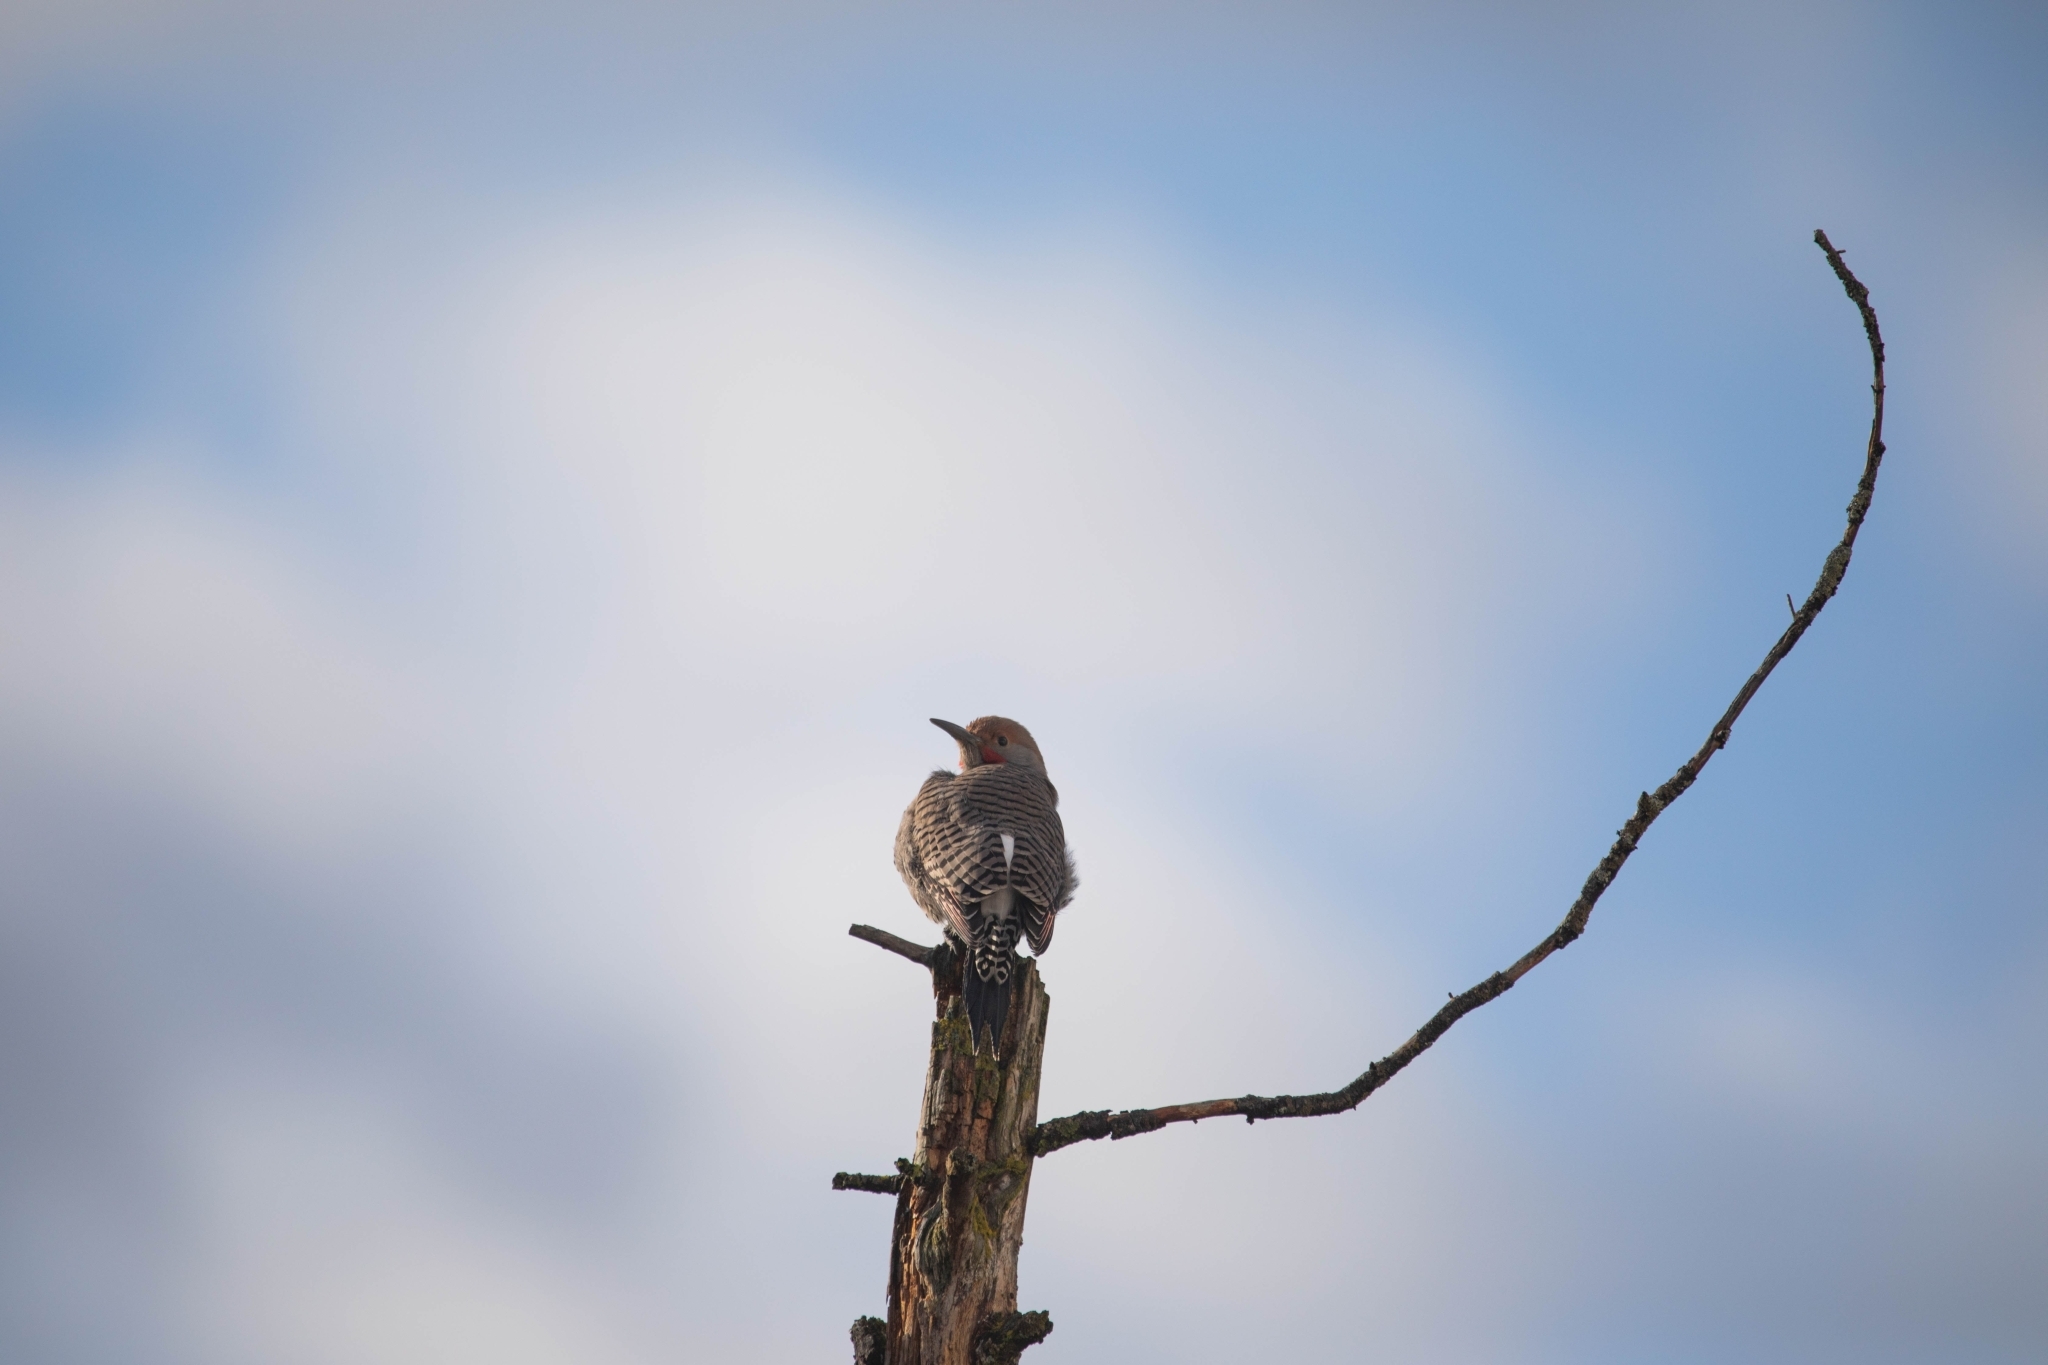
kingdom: Animalia
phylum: Chordata
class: Aves
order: Piciformes
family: Picidae
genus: Colaptes
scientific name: Colaptes auratus
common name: Northern flicker
